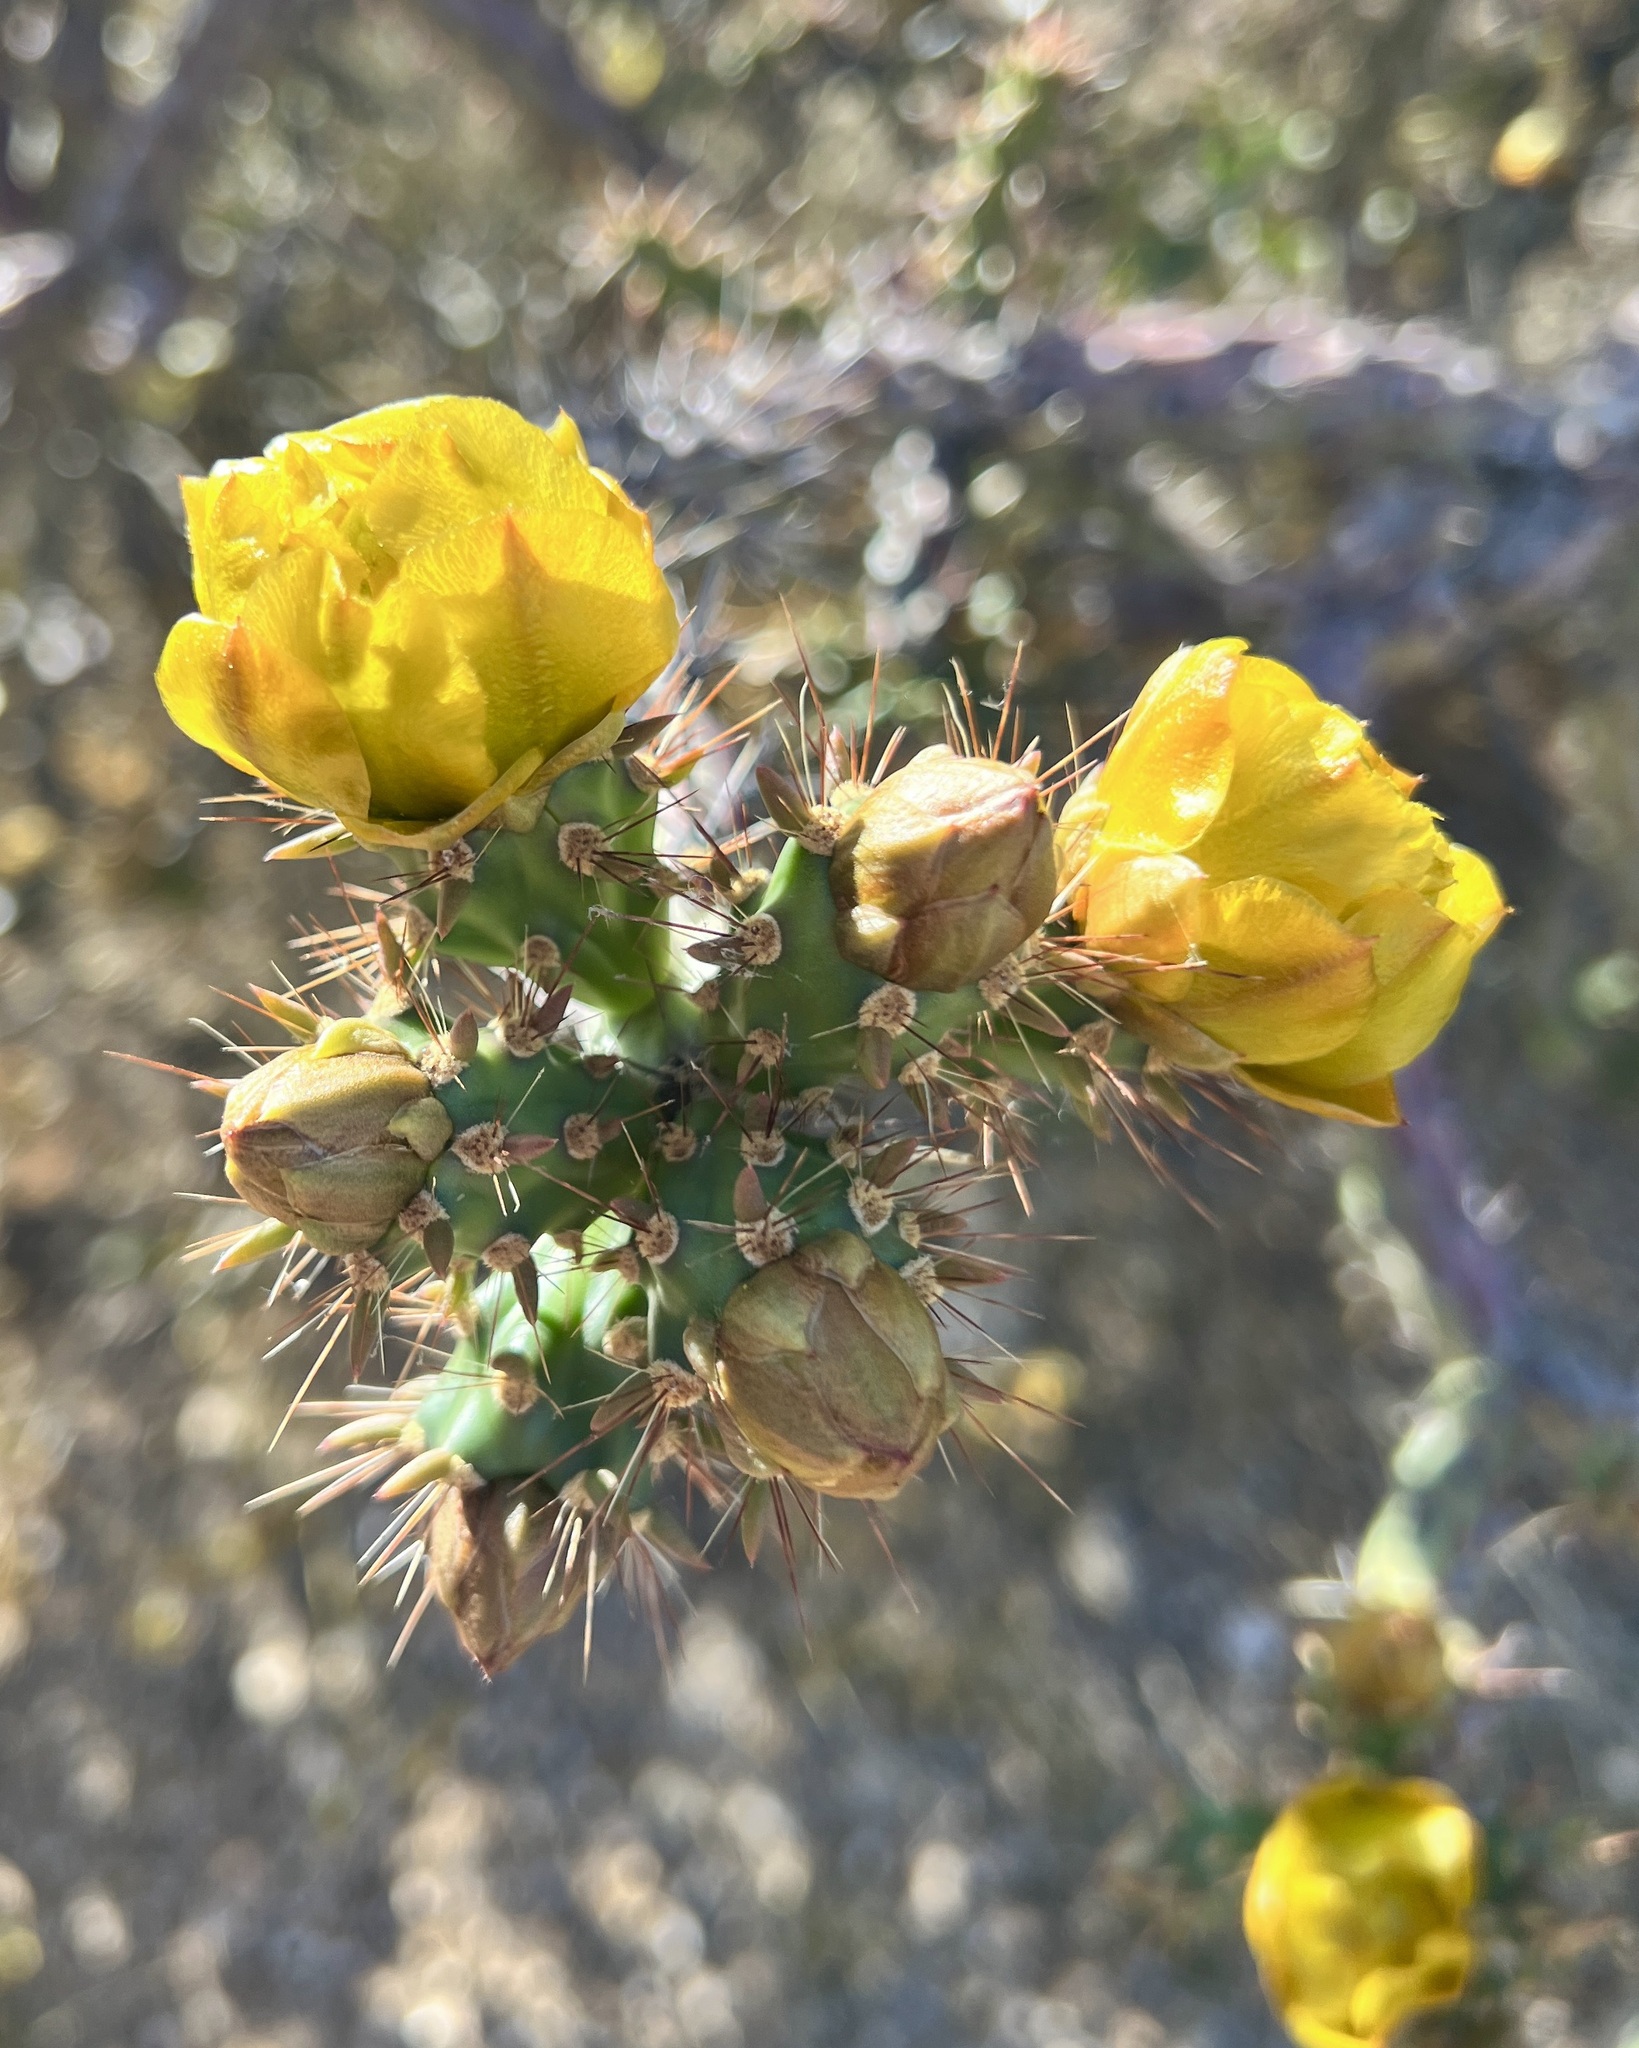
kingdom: Plantae
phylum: Tracheophyta
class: Magnoliopsida
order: Caryophyllales
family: Cactaceae
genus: Cylindropuntia
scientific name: Cylindropuntia thurberi
